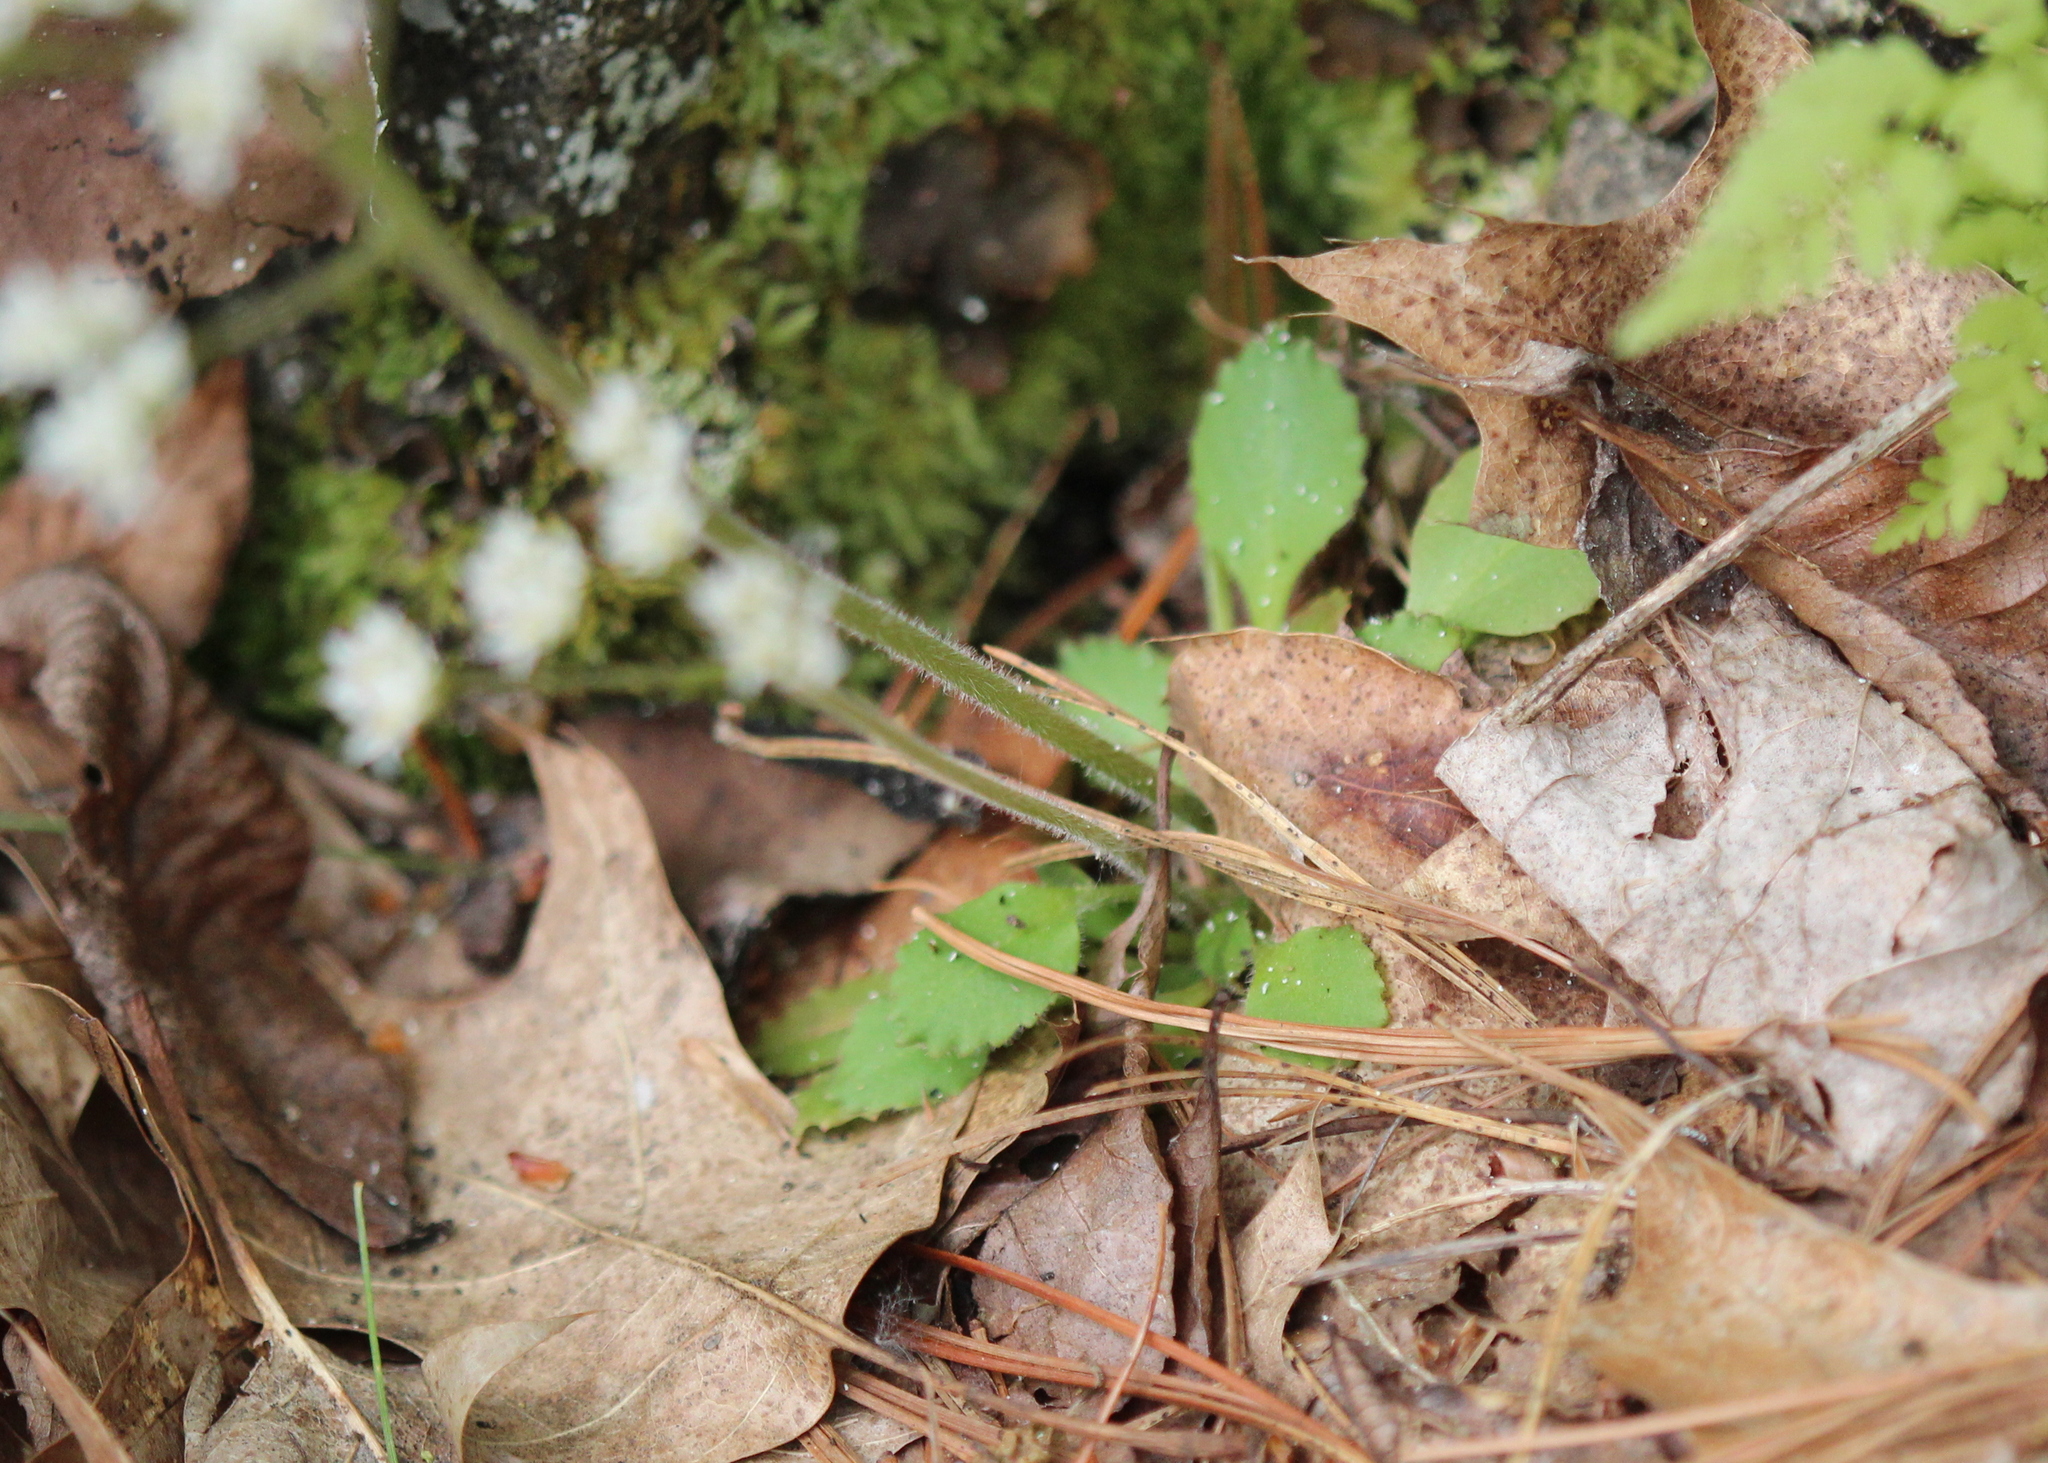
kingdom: Plantae
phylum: Tracheophyta
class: Magnoliopsida
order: Saxifragales
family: Saxifragaceae
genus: Micranthes
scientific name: Micranthes virginiensis
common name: Early saxifrage
